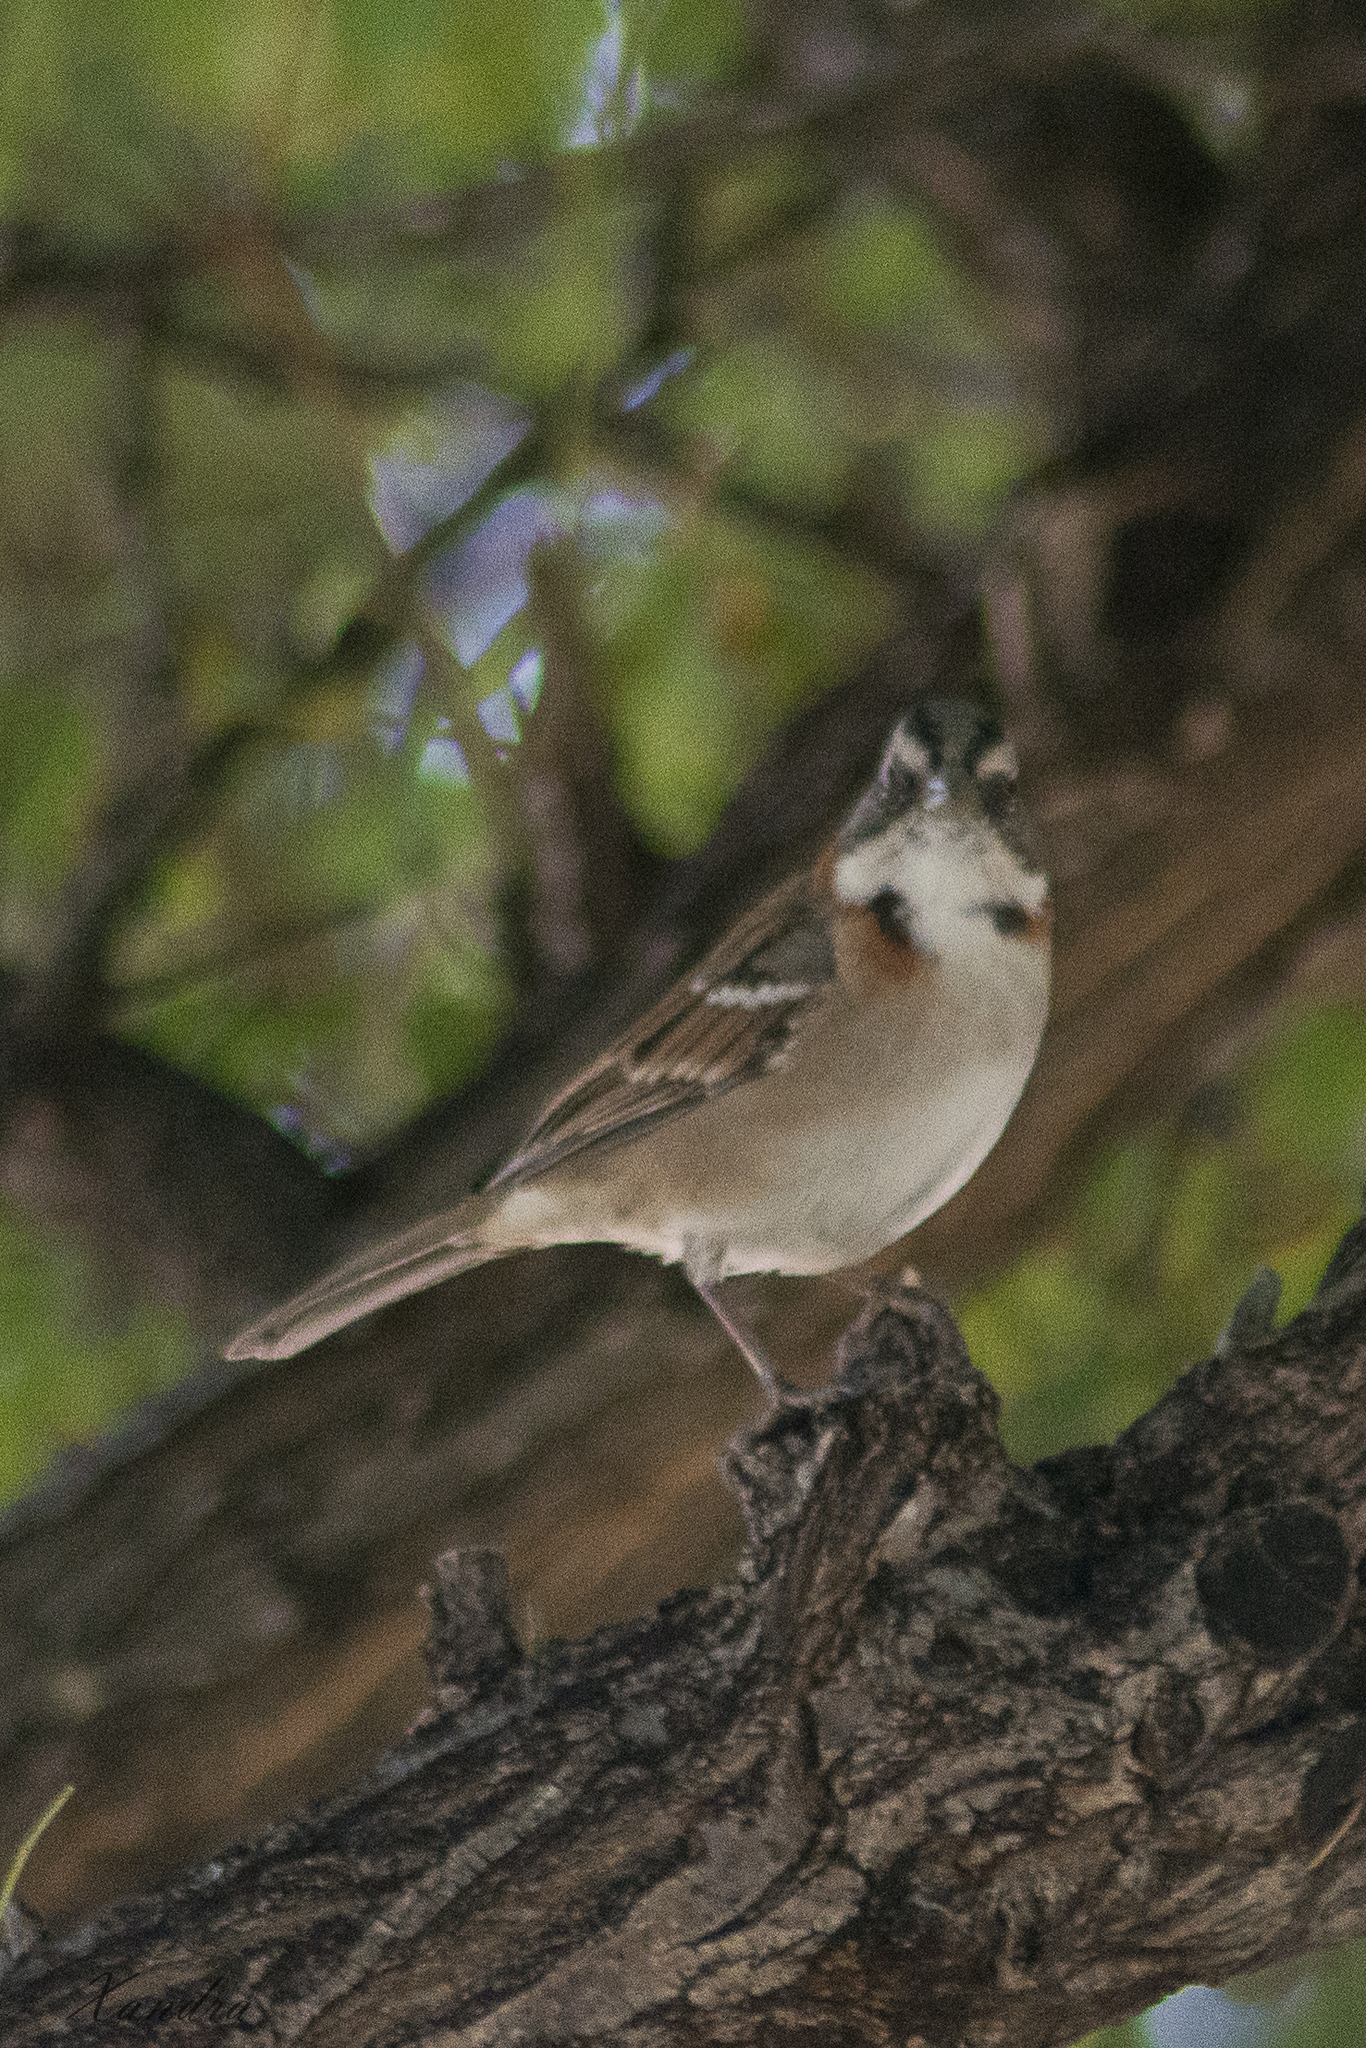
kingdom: Animalia
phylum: Chordata
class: Aves
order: Passeriformes
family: Passerellidae
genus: Zonotrichia
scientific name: Zonotrichia capensis
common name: Rufous-collared sparrow
